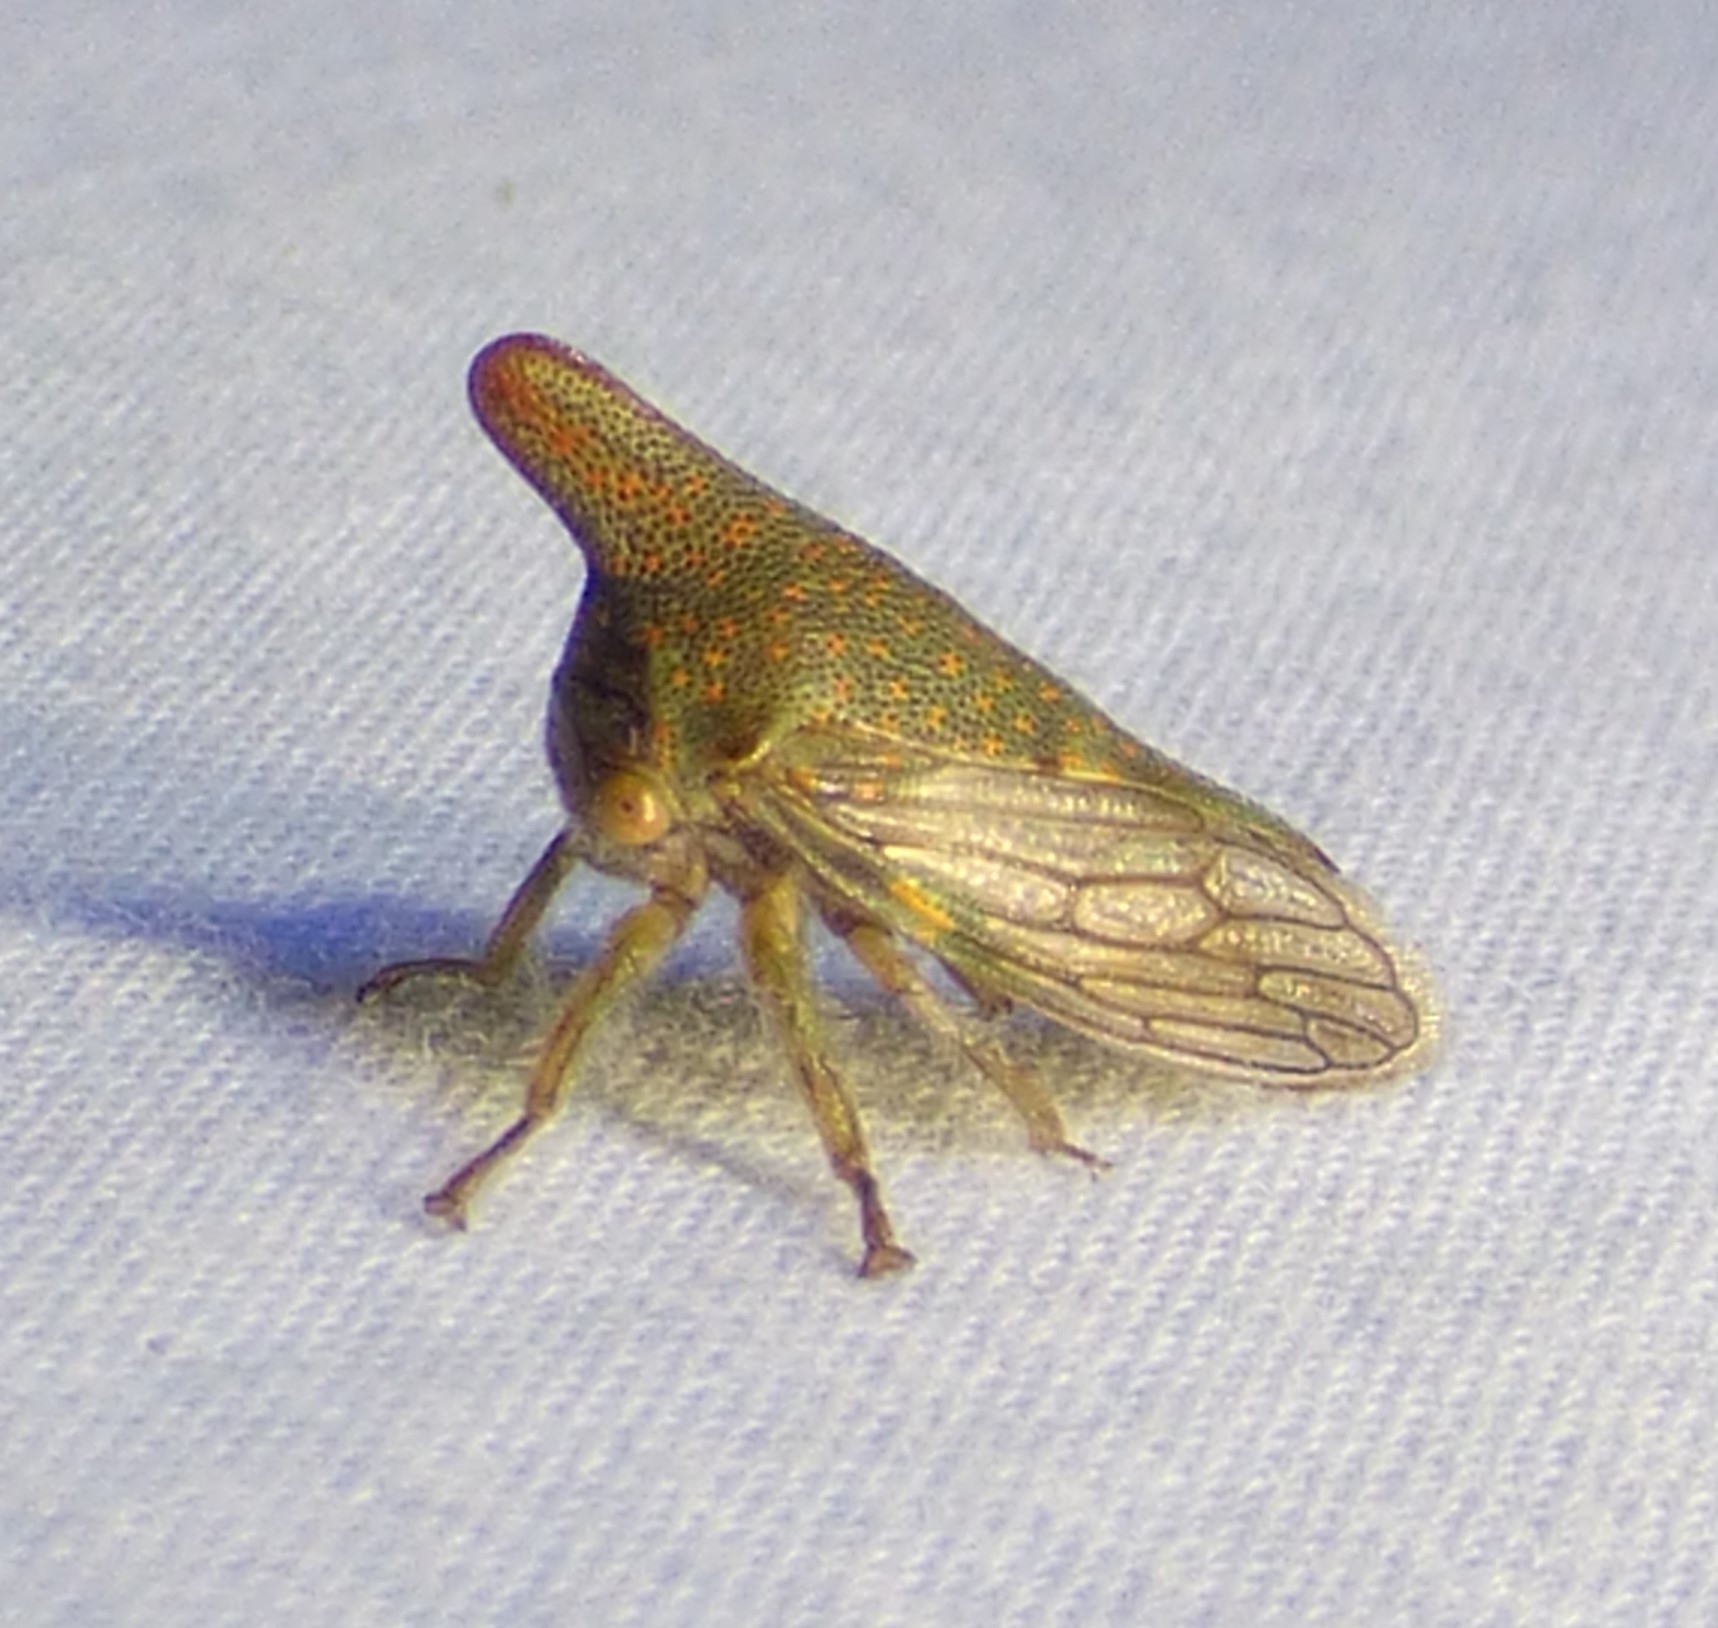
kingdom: Animalia
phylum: Arthropoda
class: Insecta
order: Hemiptera
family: Membracidae
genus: Platycotis
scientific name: Platycotis vittatus
